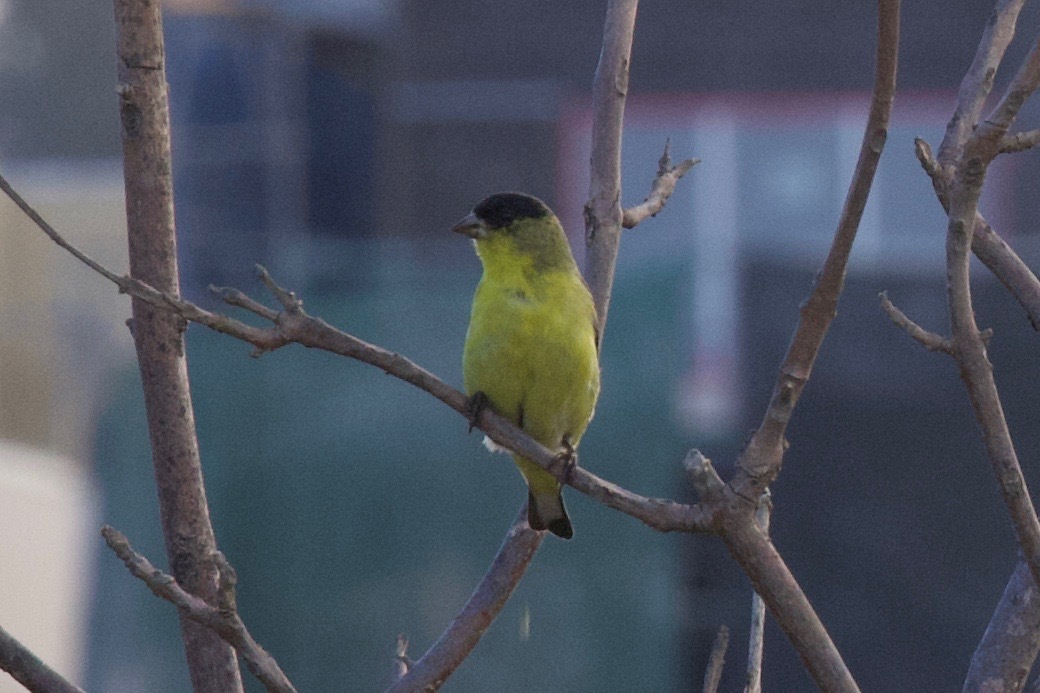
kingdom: Animalia
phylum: Chordata
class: Aves
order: Passeriformes
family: Fringillidae
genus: Spinus
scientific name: Spinus psaltria
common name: Lesser goldfinch
